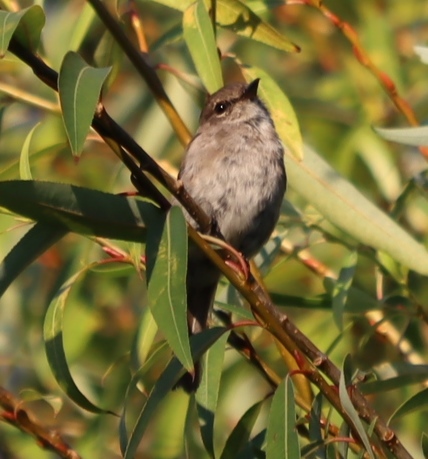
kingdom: Animalia
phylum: Chordata
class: Aves
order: Passeriformes
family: Muscicapidae
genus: Muscicapa
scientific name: Muscicapa adusta
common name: African dusky flycatcher
